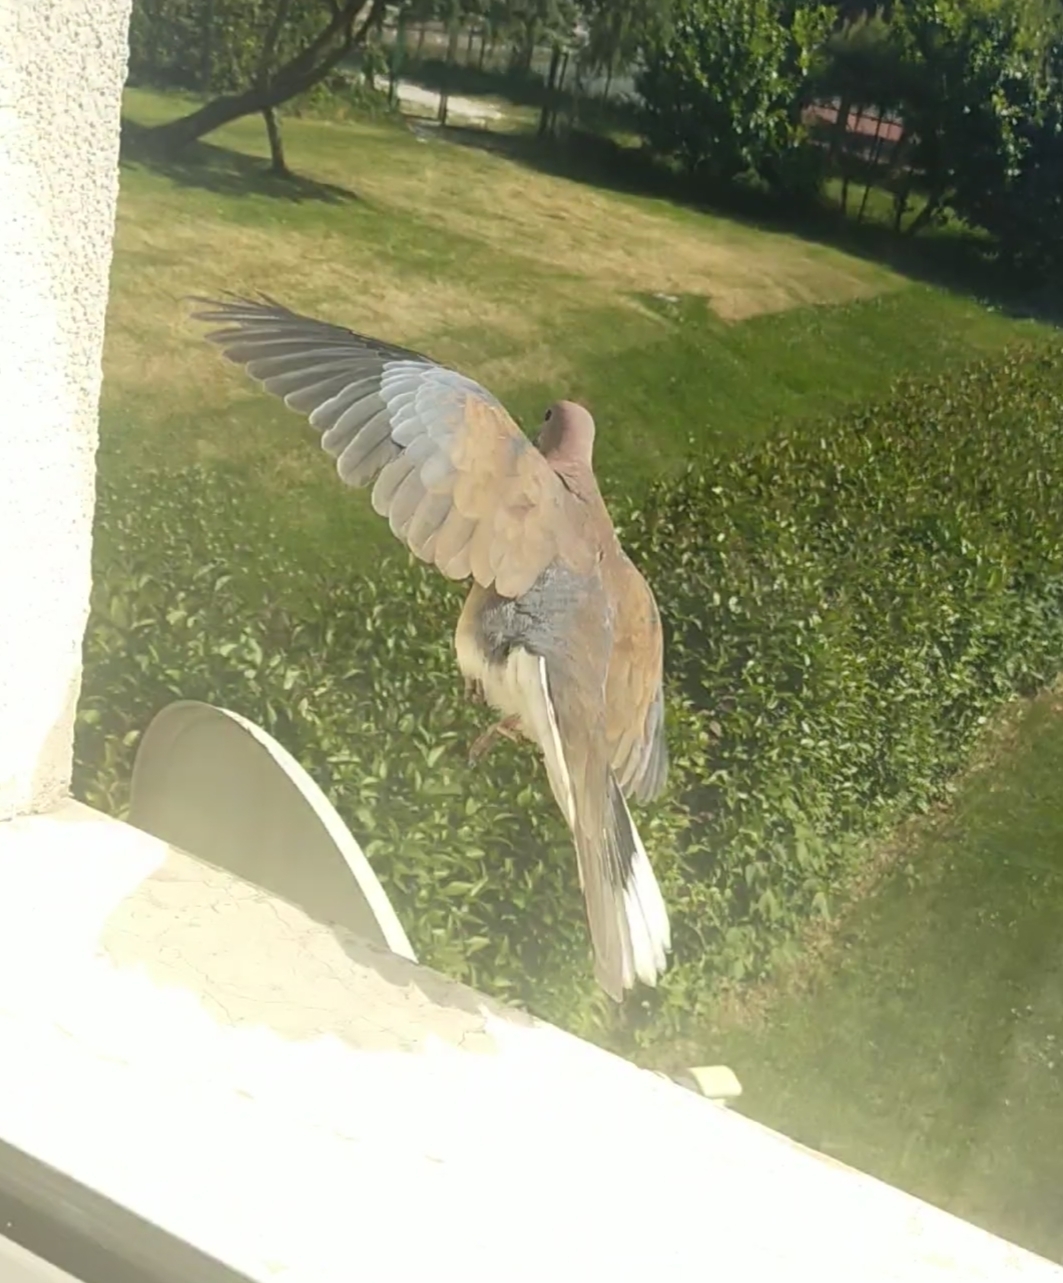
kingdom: Animalia
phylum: Chordata
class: Aves
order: Columbiformes
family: Columbidae
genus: Spilopelia
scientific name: Spilopelia senegalensis
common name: Laughing dove
